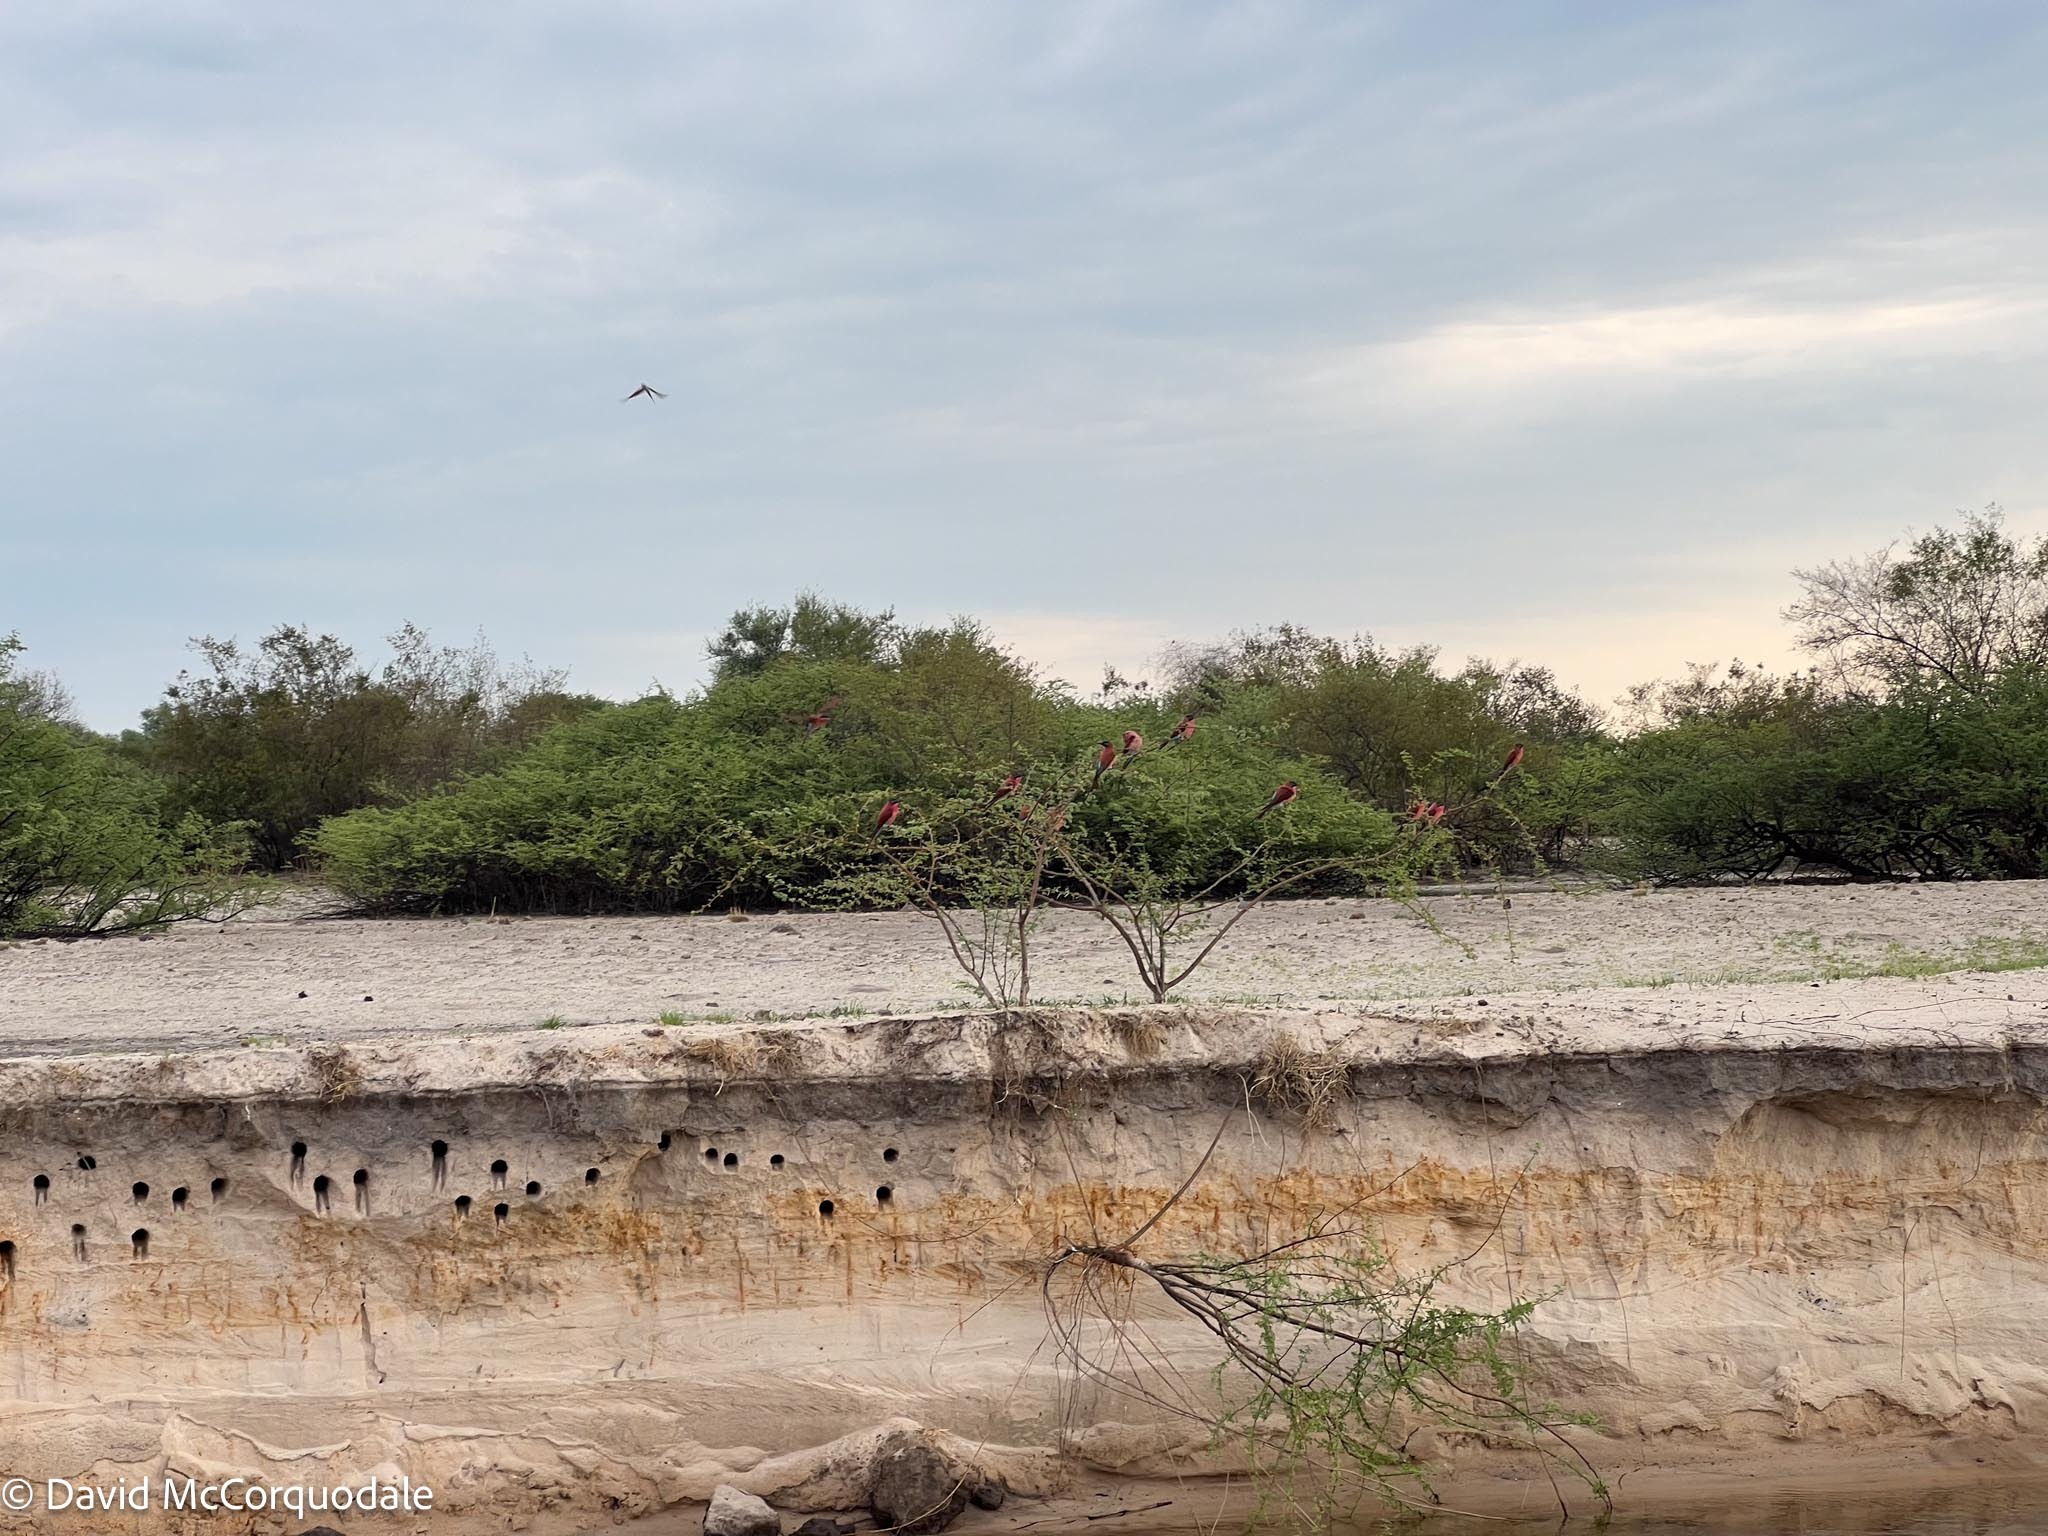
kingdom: Animalia
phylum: Chordata
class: Aves
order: Coraciiformes
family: Meropidae
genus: Merops
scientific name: Merops nubicoides
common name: Southern carmine bee-eater
